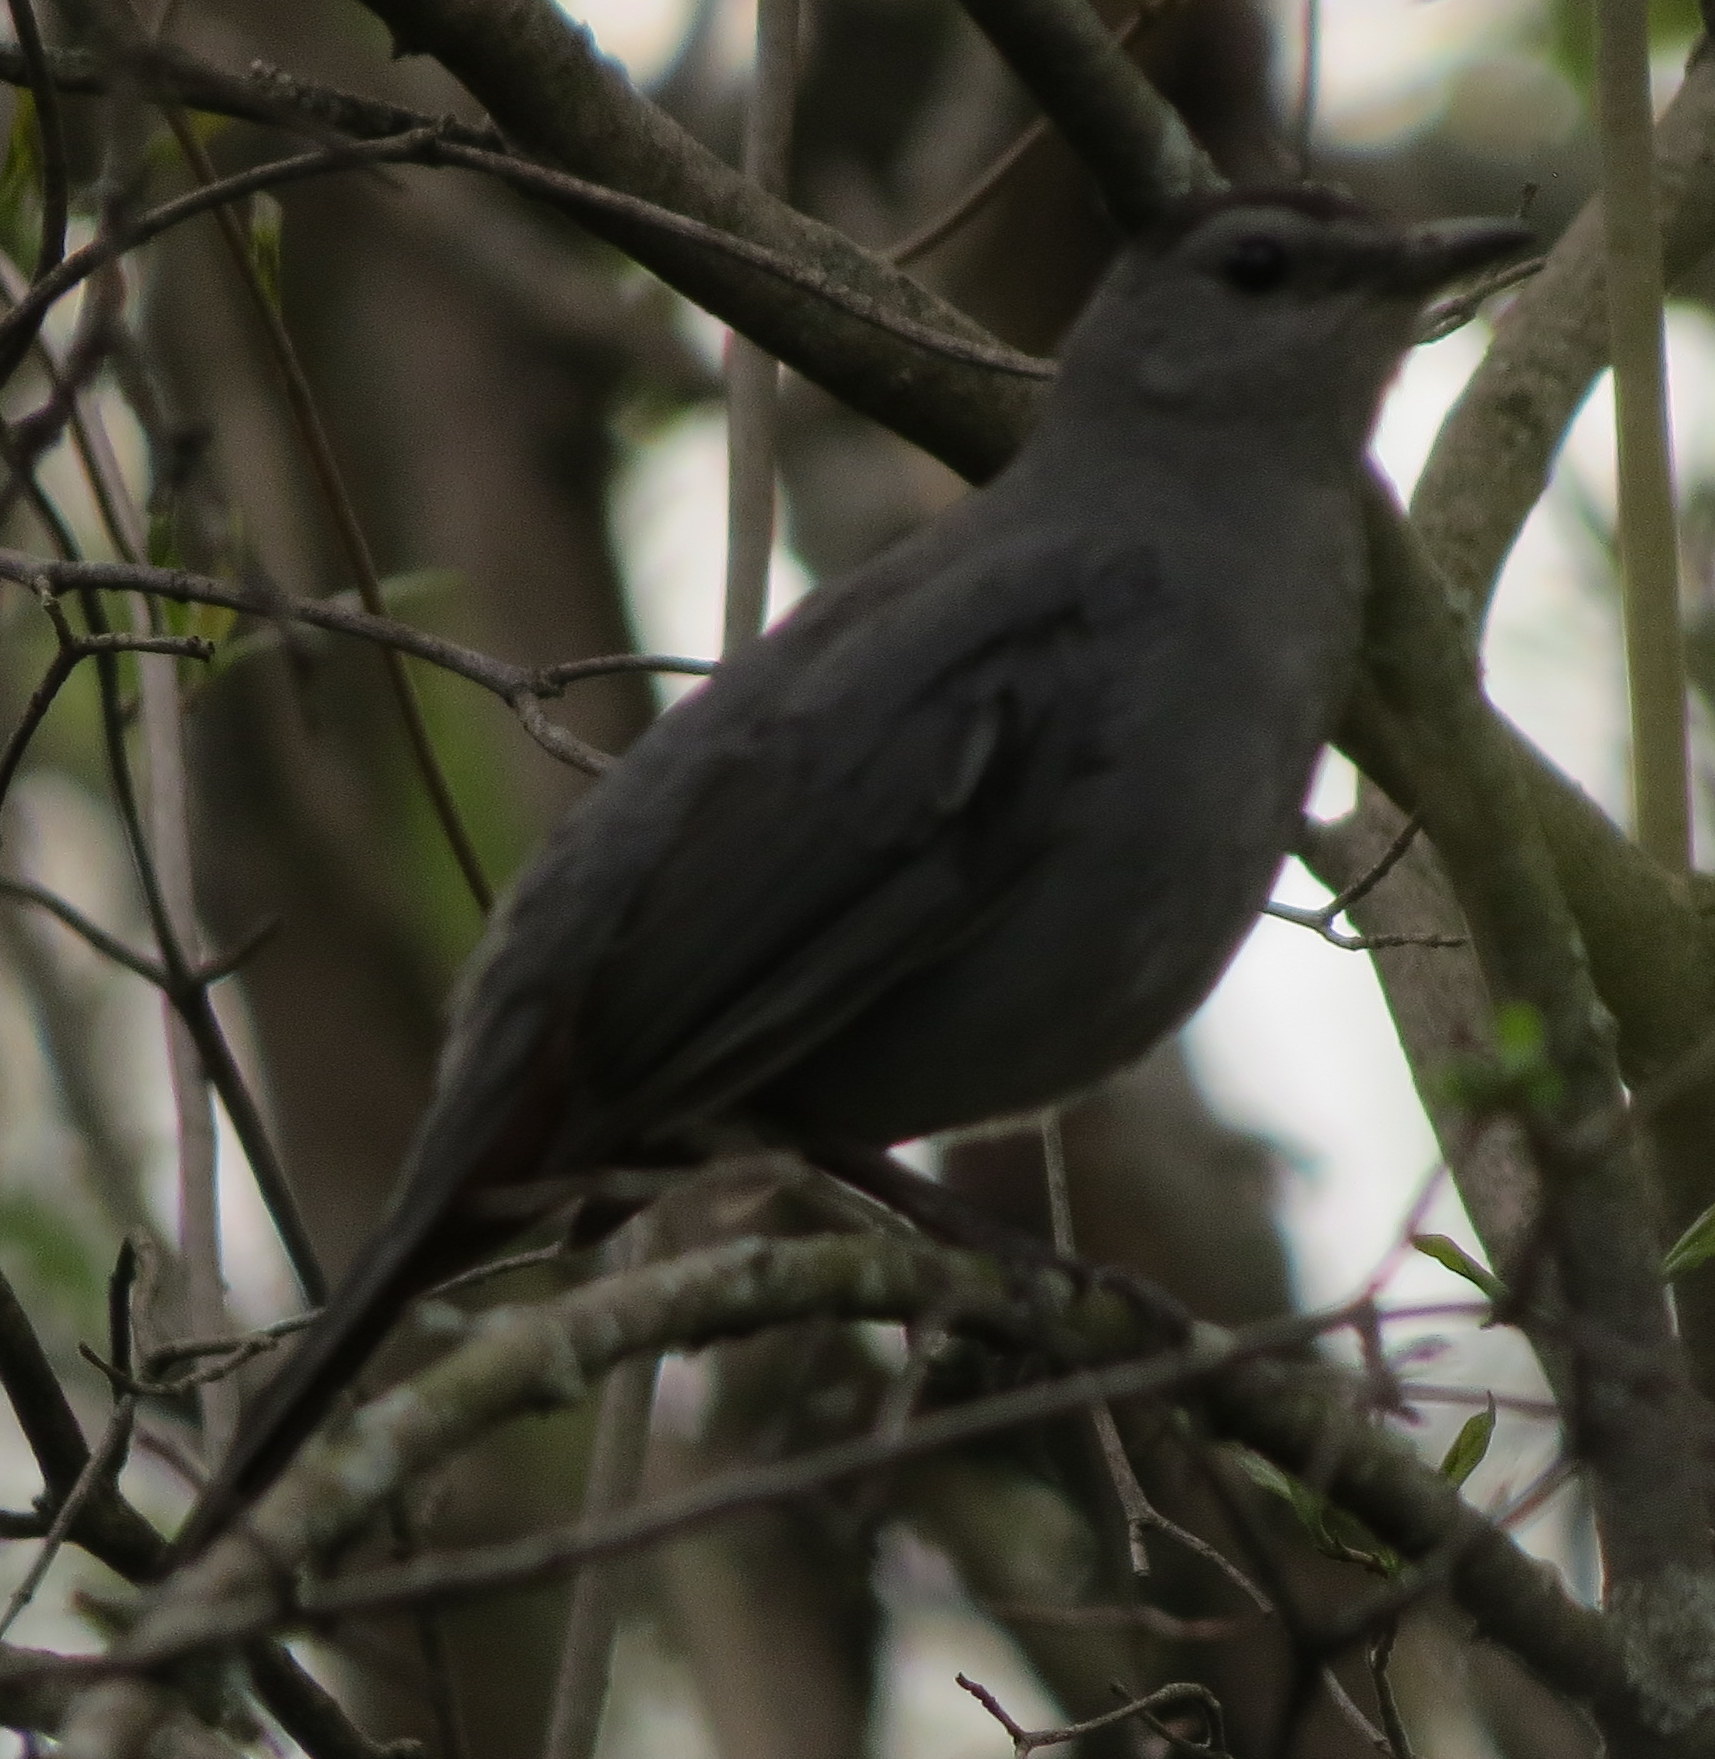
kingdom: Animalia
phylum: Chordata
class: Aves
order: Passeriformes
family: Mimidae
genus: Dumetella
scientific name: Dumetella carolinensis
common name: Gray catbird
